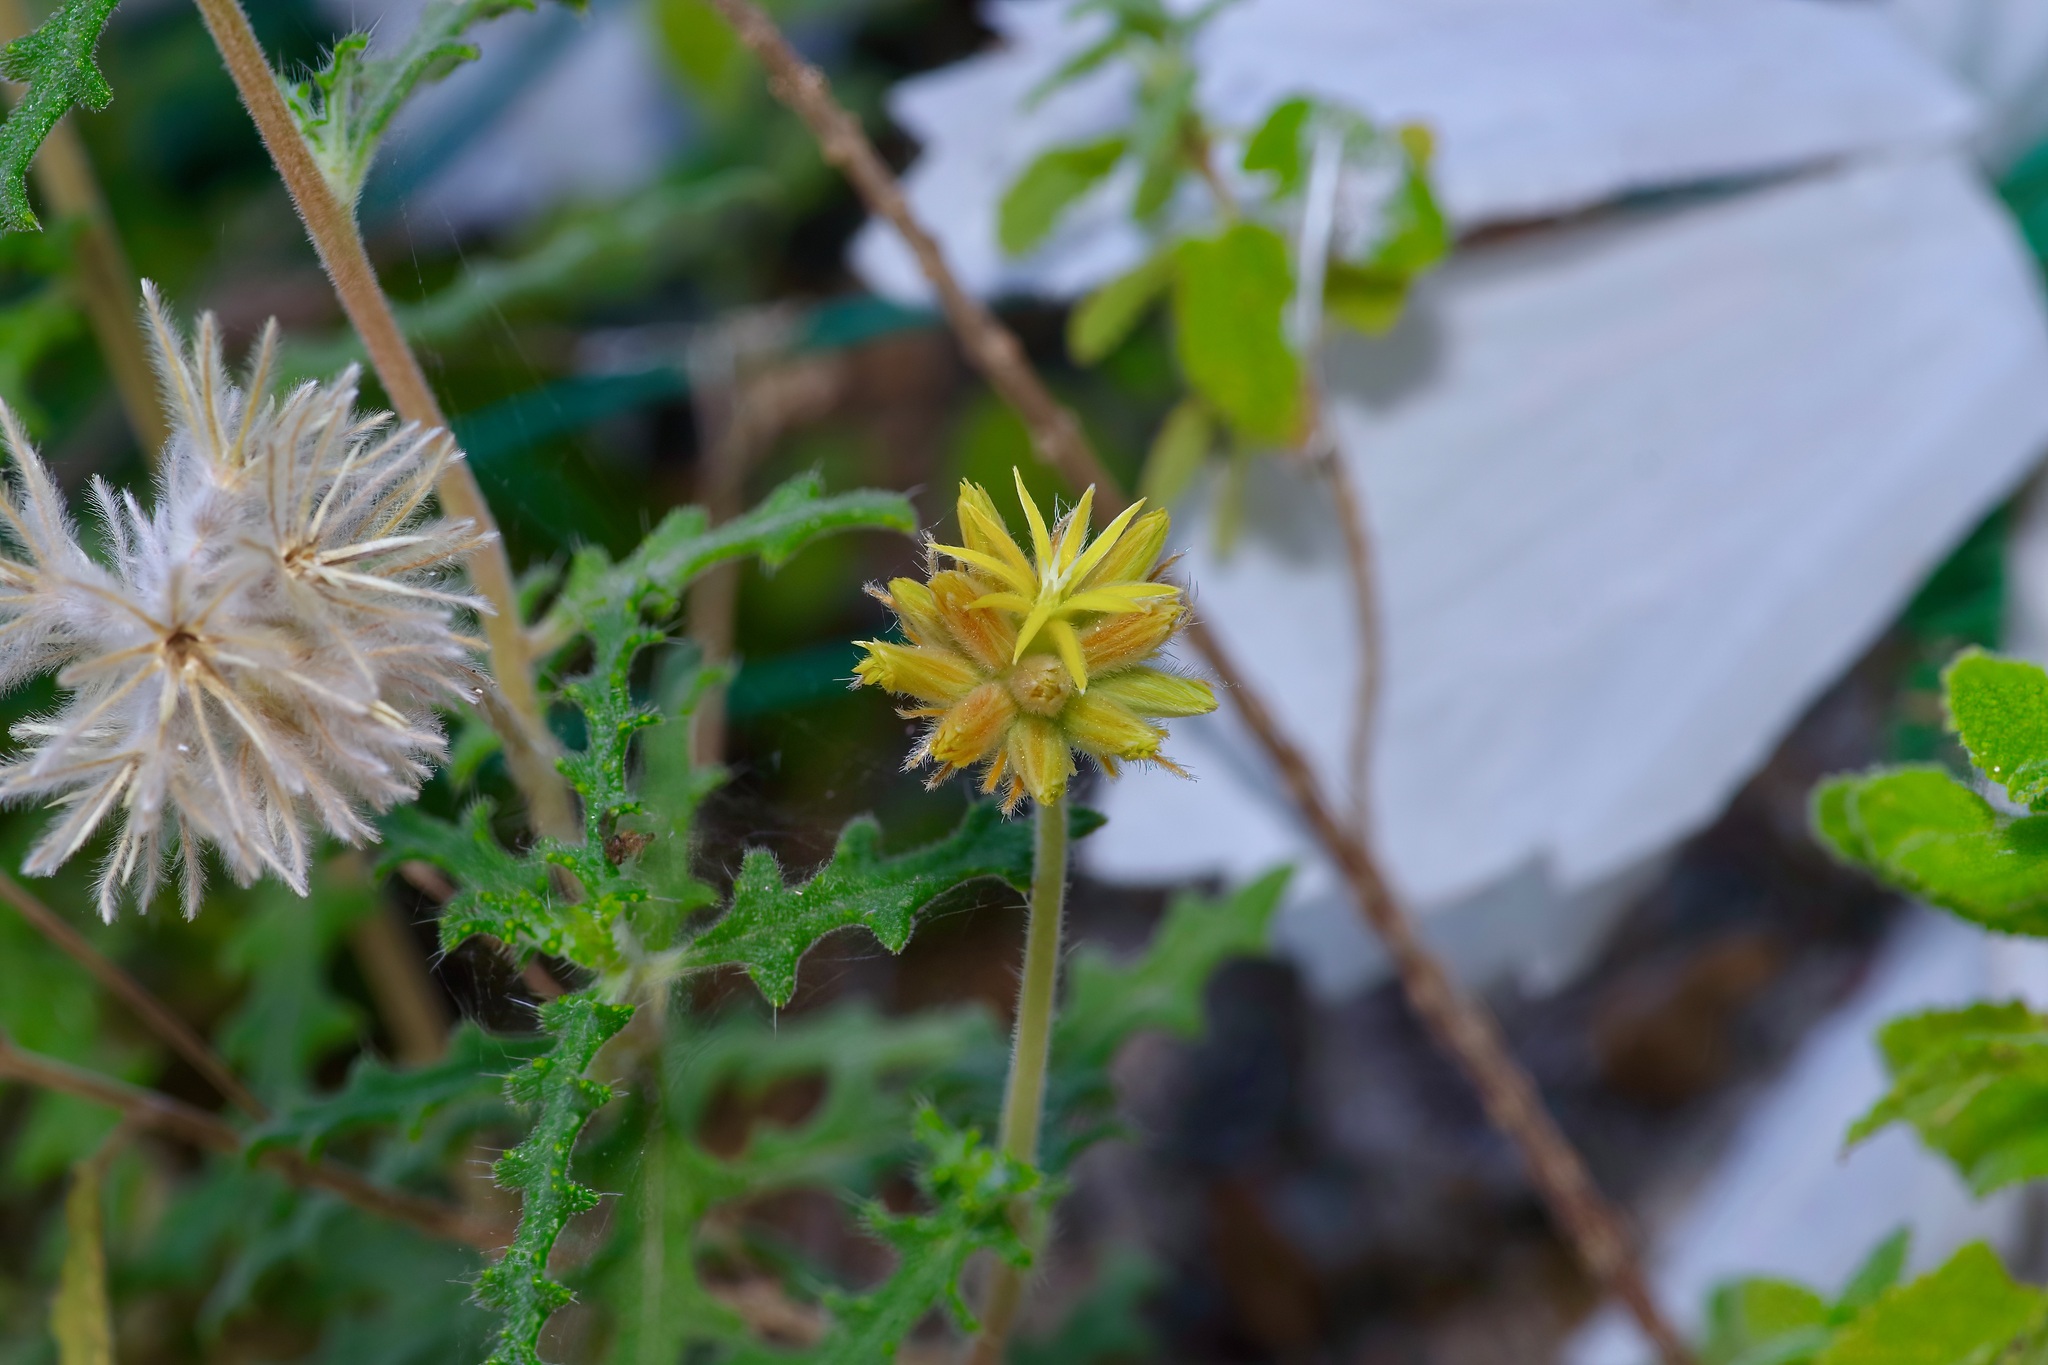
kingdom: Plantae
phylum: Tracheophyta
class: Magnoliopsida
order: Cornales
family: Loasaceae
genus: Cevallia
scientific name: Cevallia sinuata
